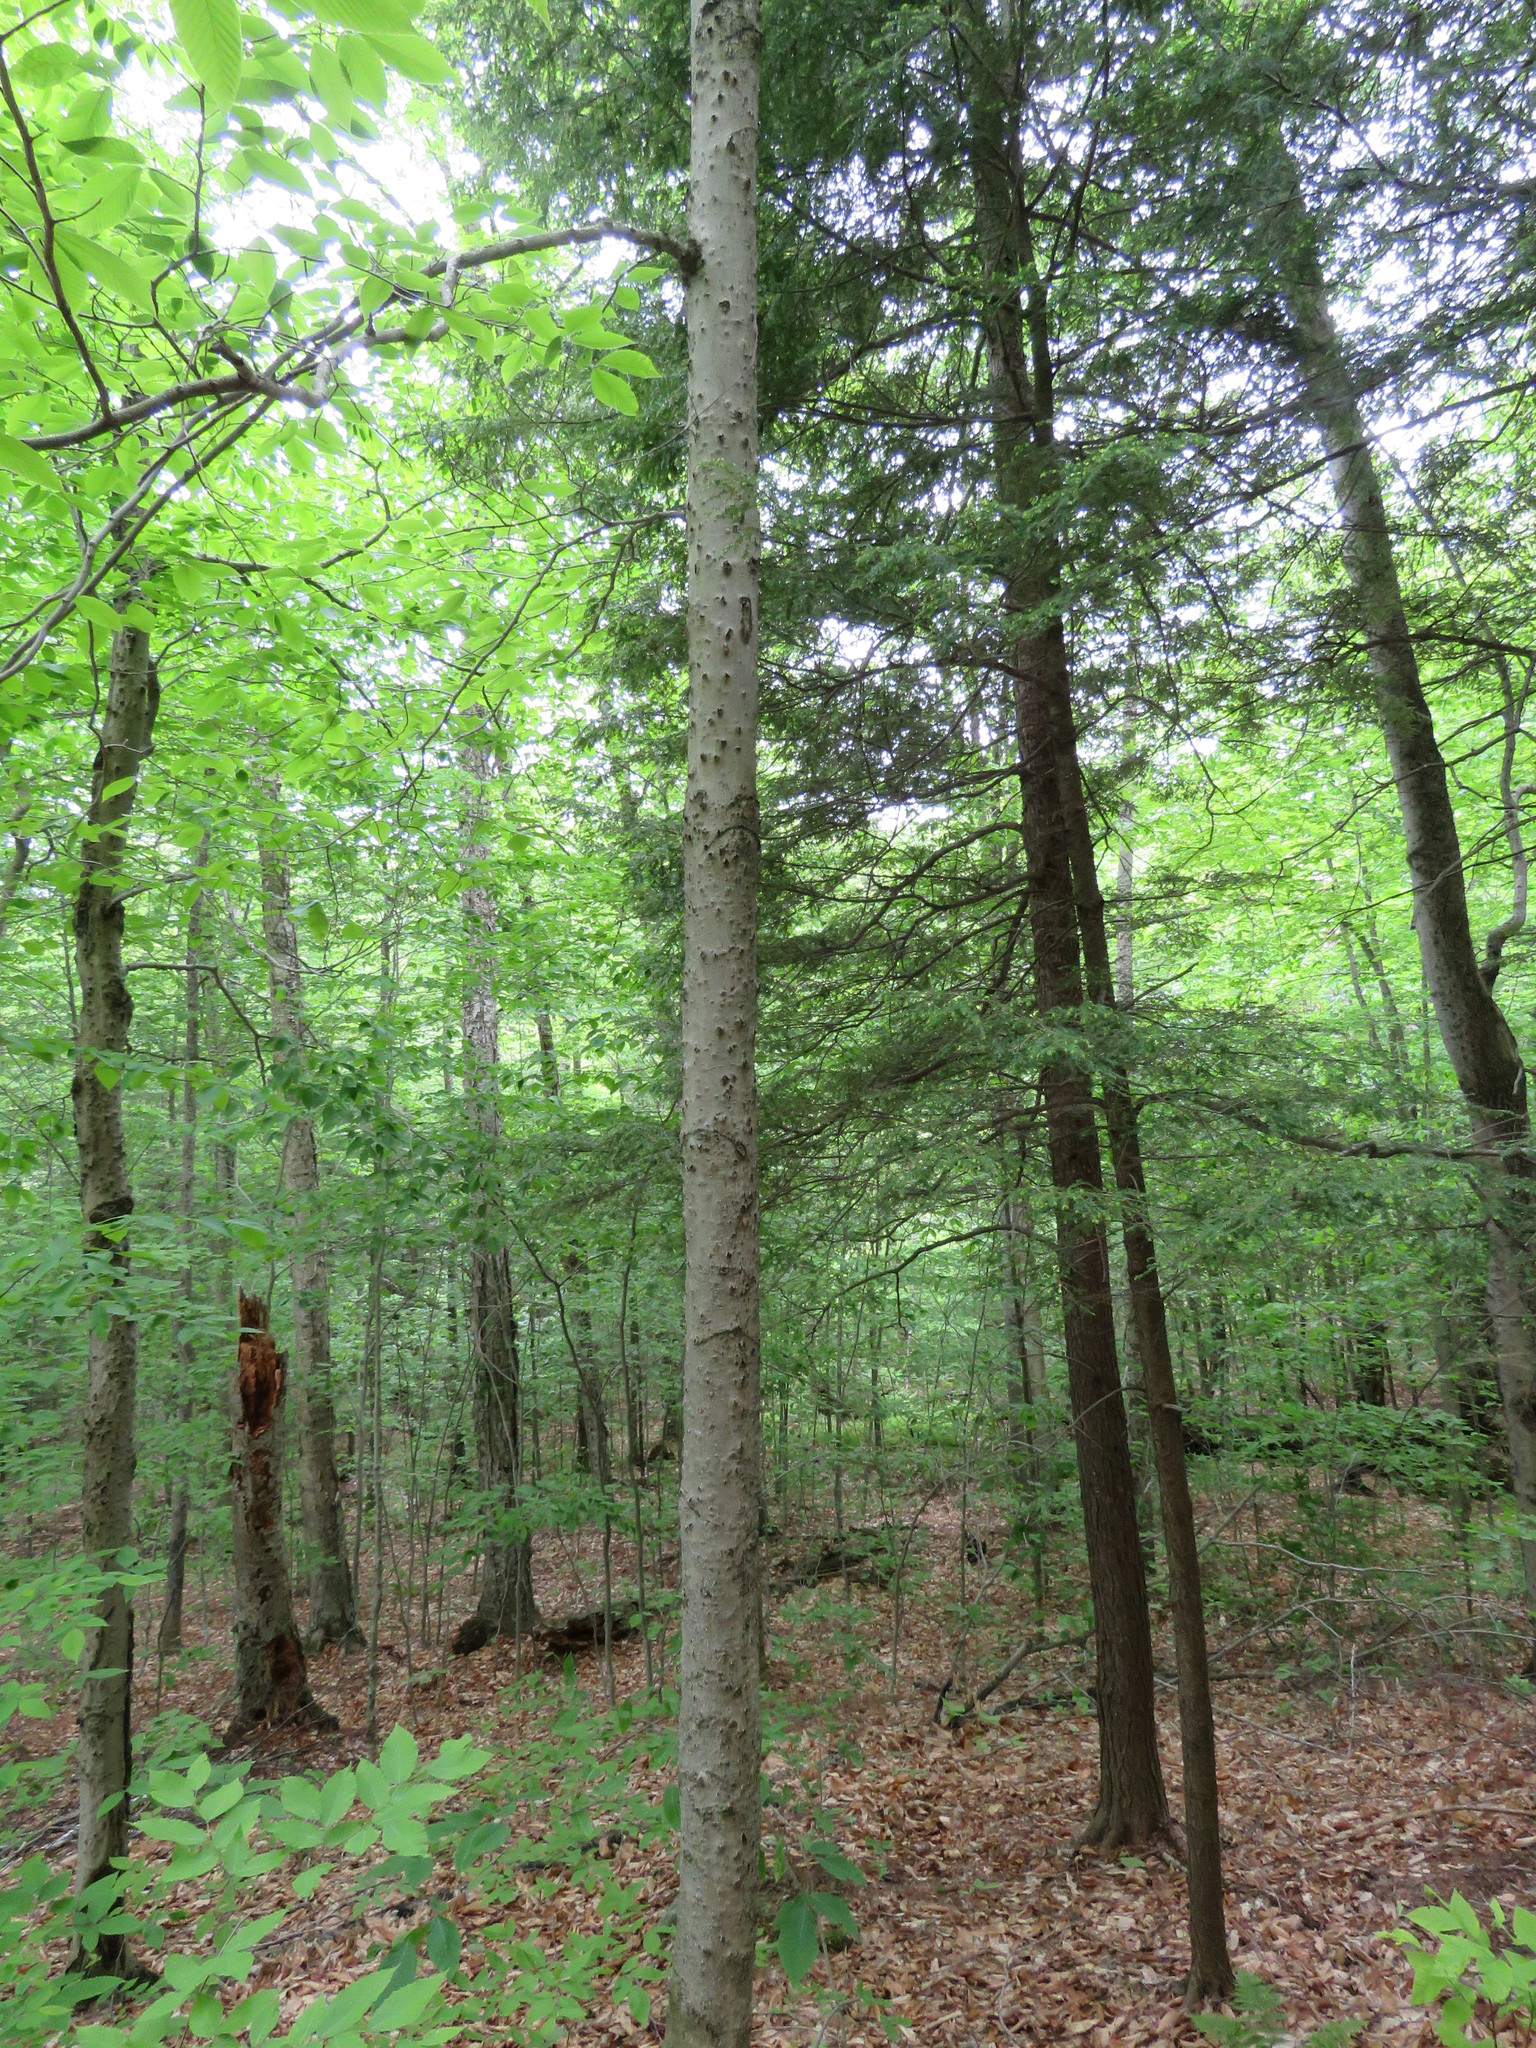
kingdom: Plantae
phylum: Tracheophyta
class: Magnoliopsida
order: Fagales
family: Fagaceae
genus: Fagus
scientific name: Fagus grandifolia
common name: American beech
